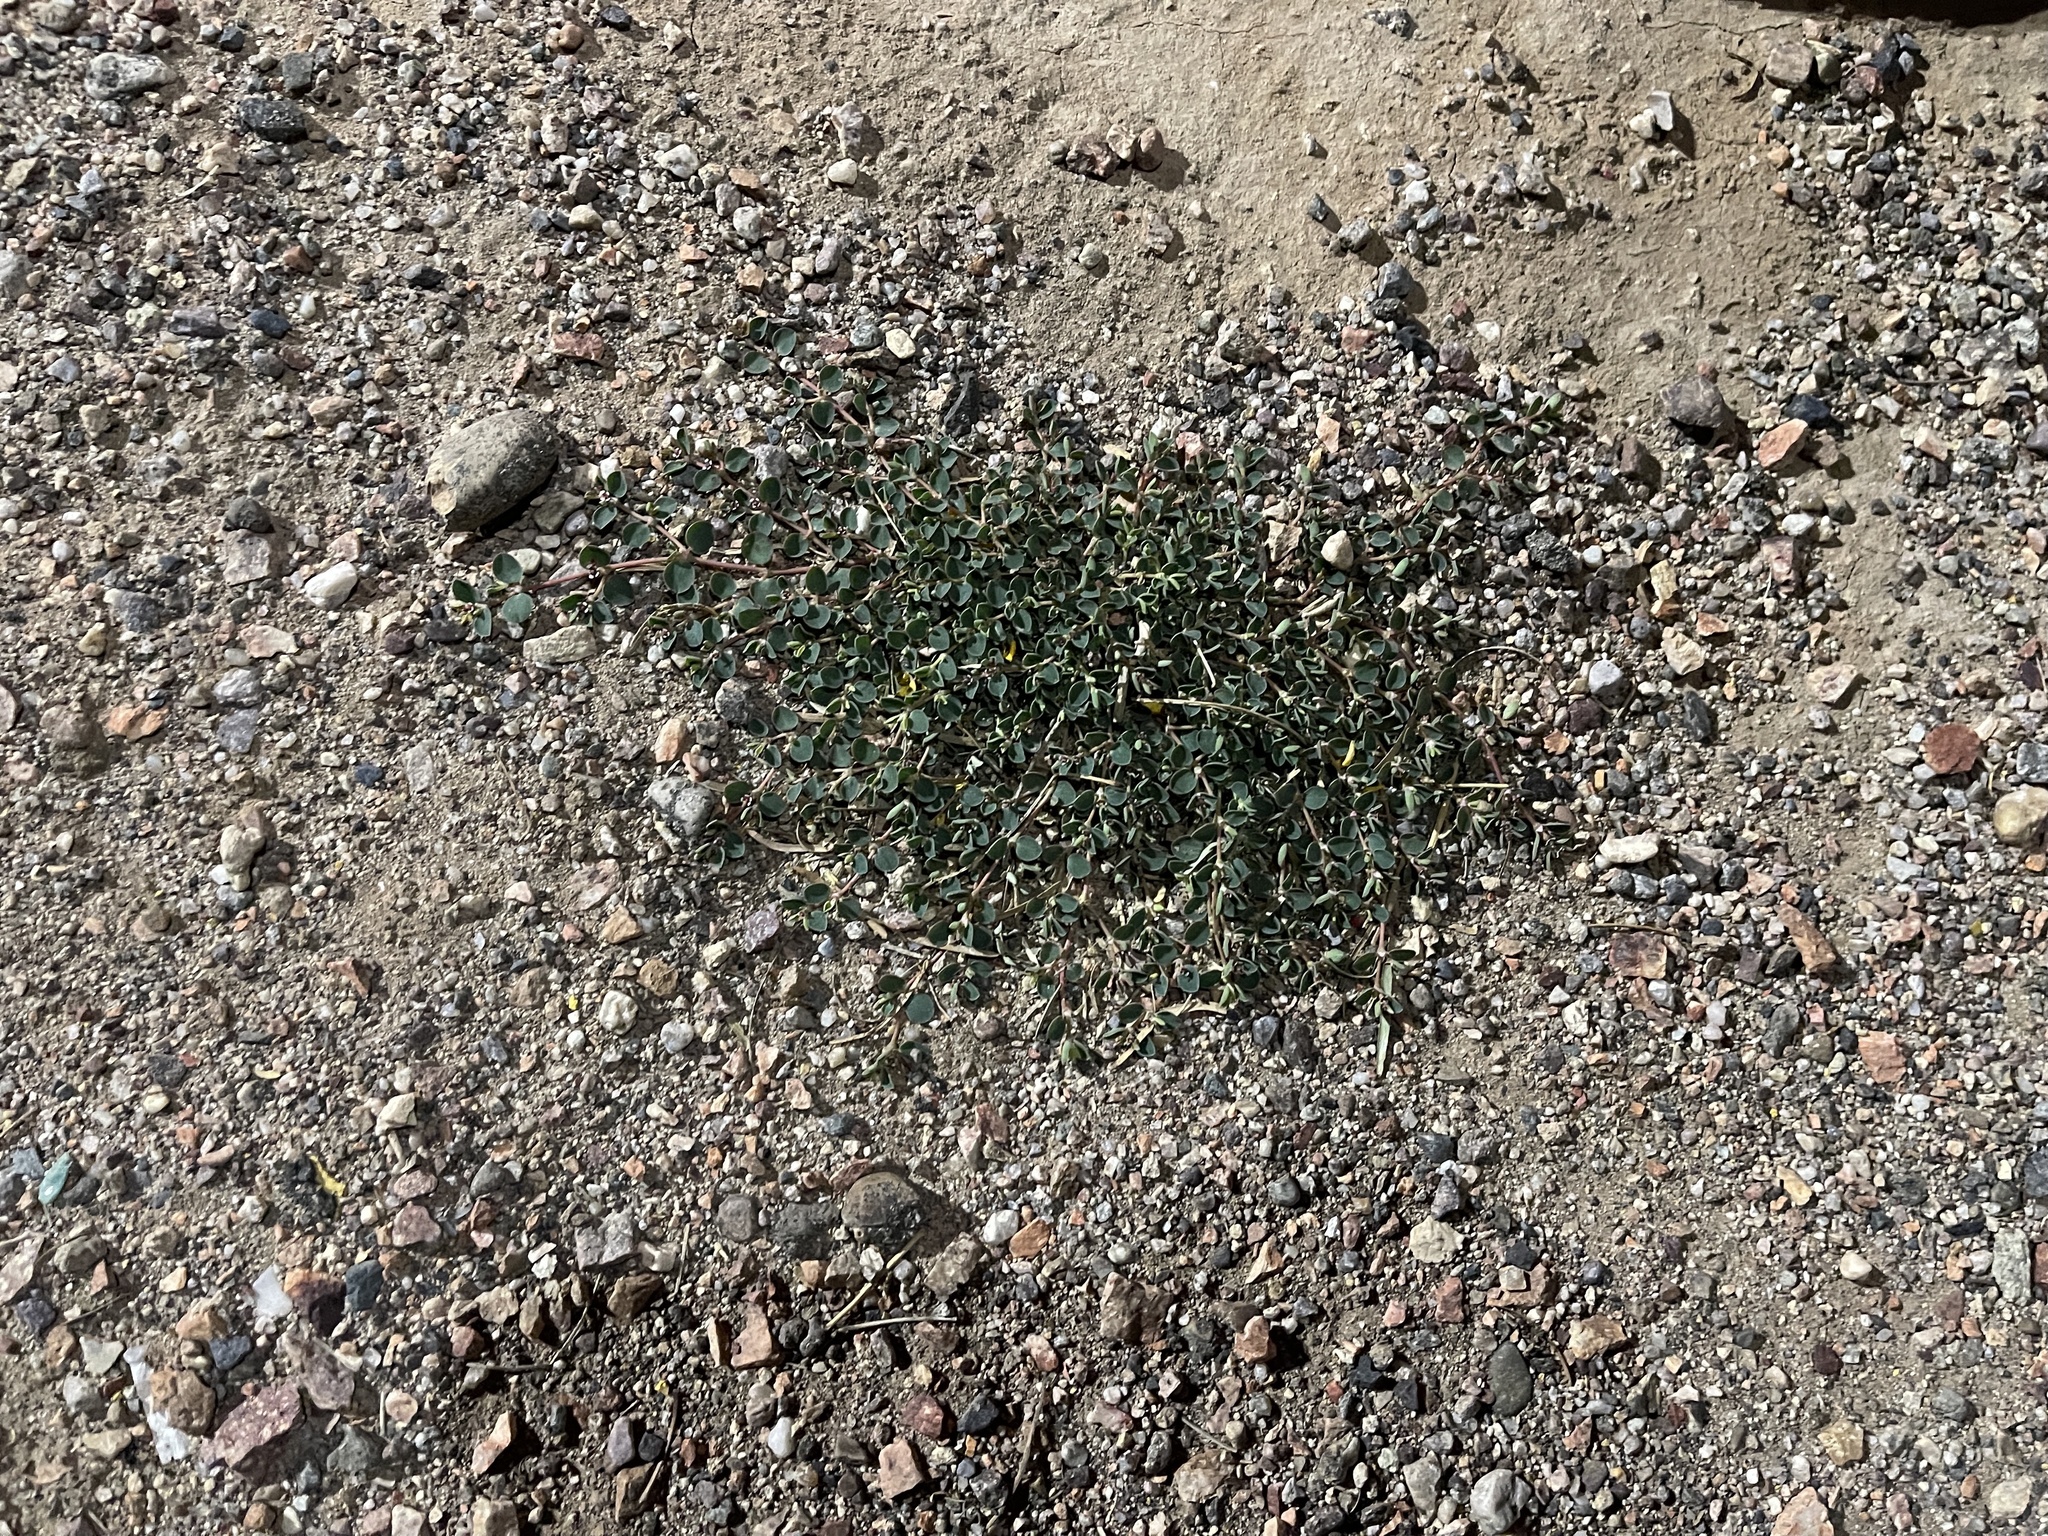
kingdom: Plantae
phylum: Tracheophyta
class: Magnoliopsida
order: Malpighiales
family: Euphorbiaceae
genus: Euphorbia
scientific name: Euphorbia albomarginata
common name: Whitemargin sandmat
